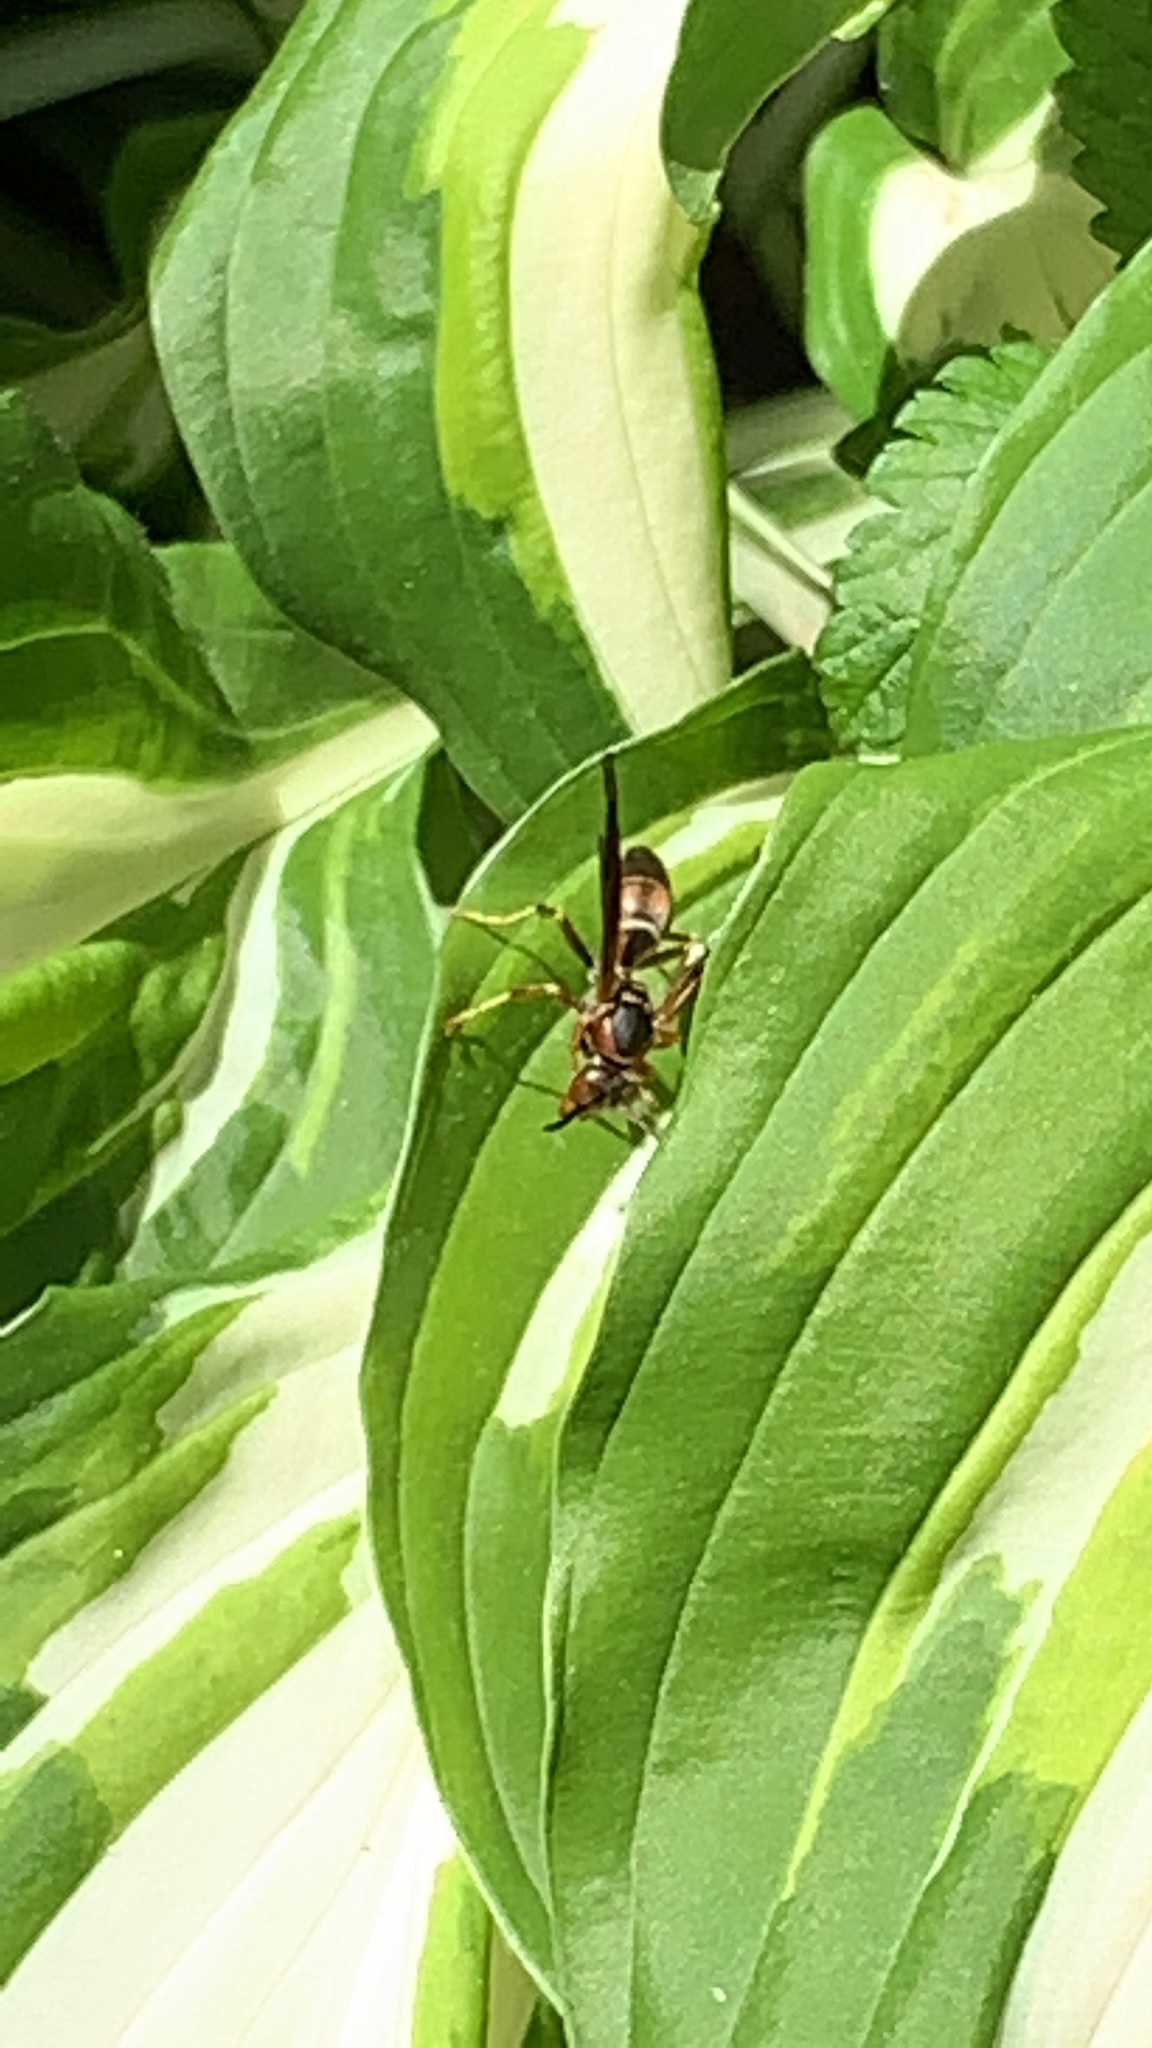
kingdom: Animalia
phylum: Arthropoda
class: Insecta
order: Hymenoptera
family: Eumenidae
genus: Polistes
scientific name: Polistes fuscatus
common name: Dark paper wasp
